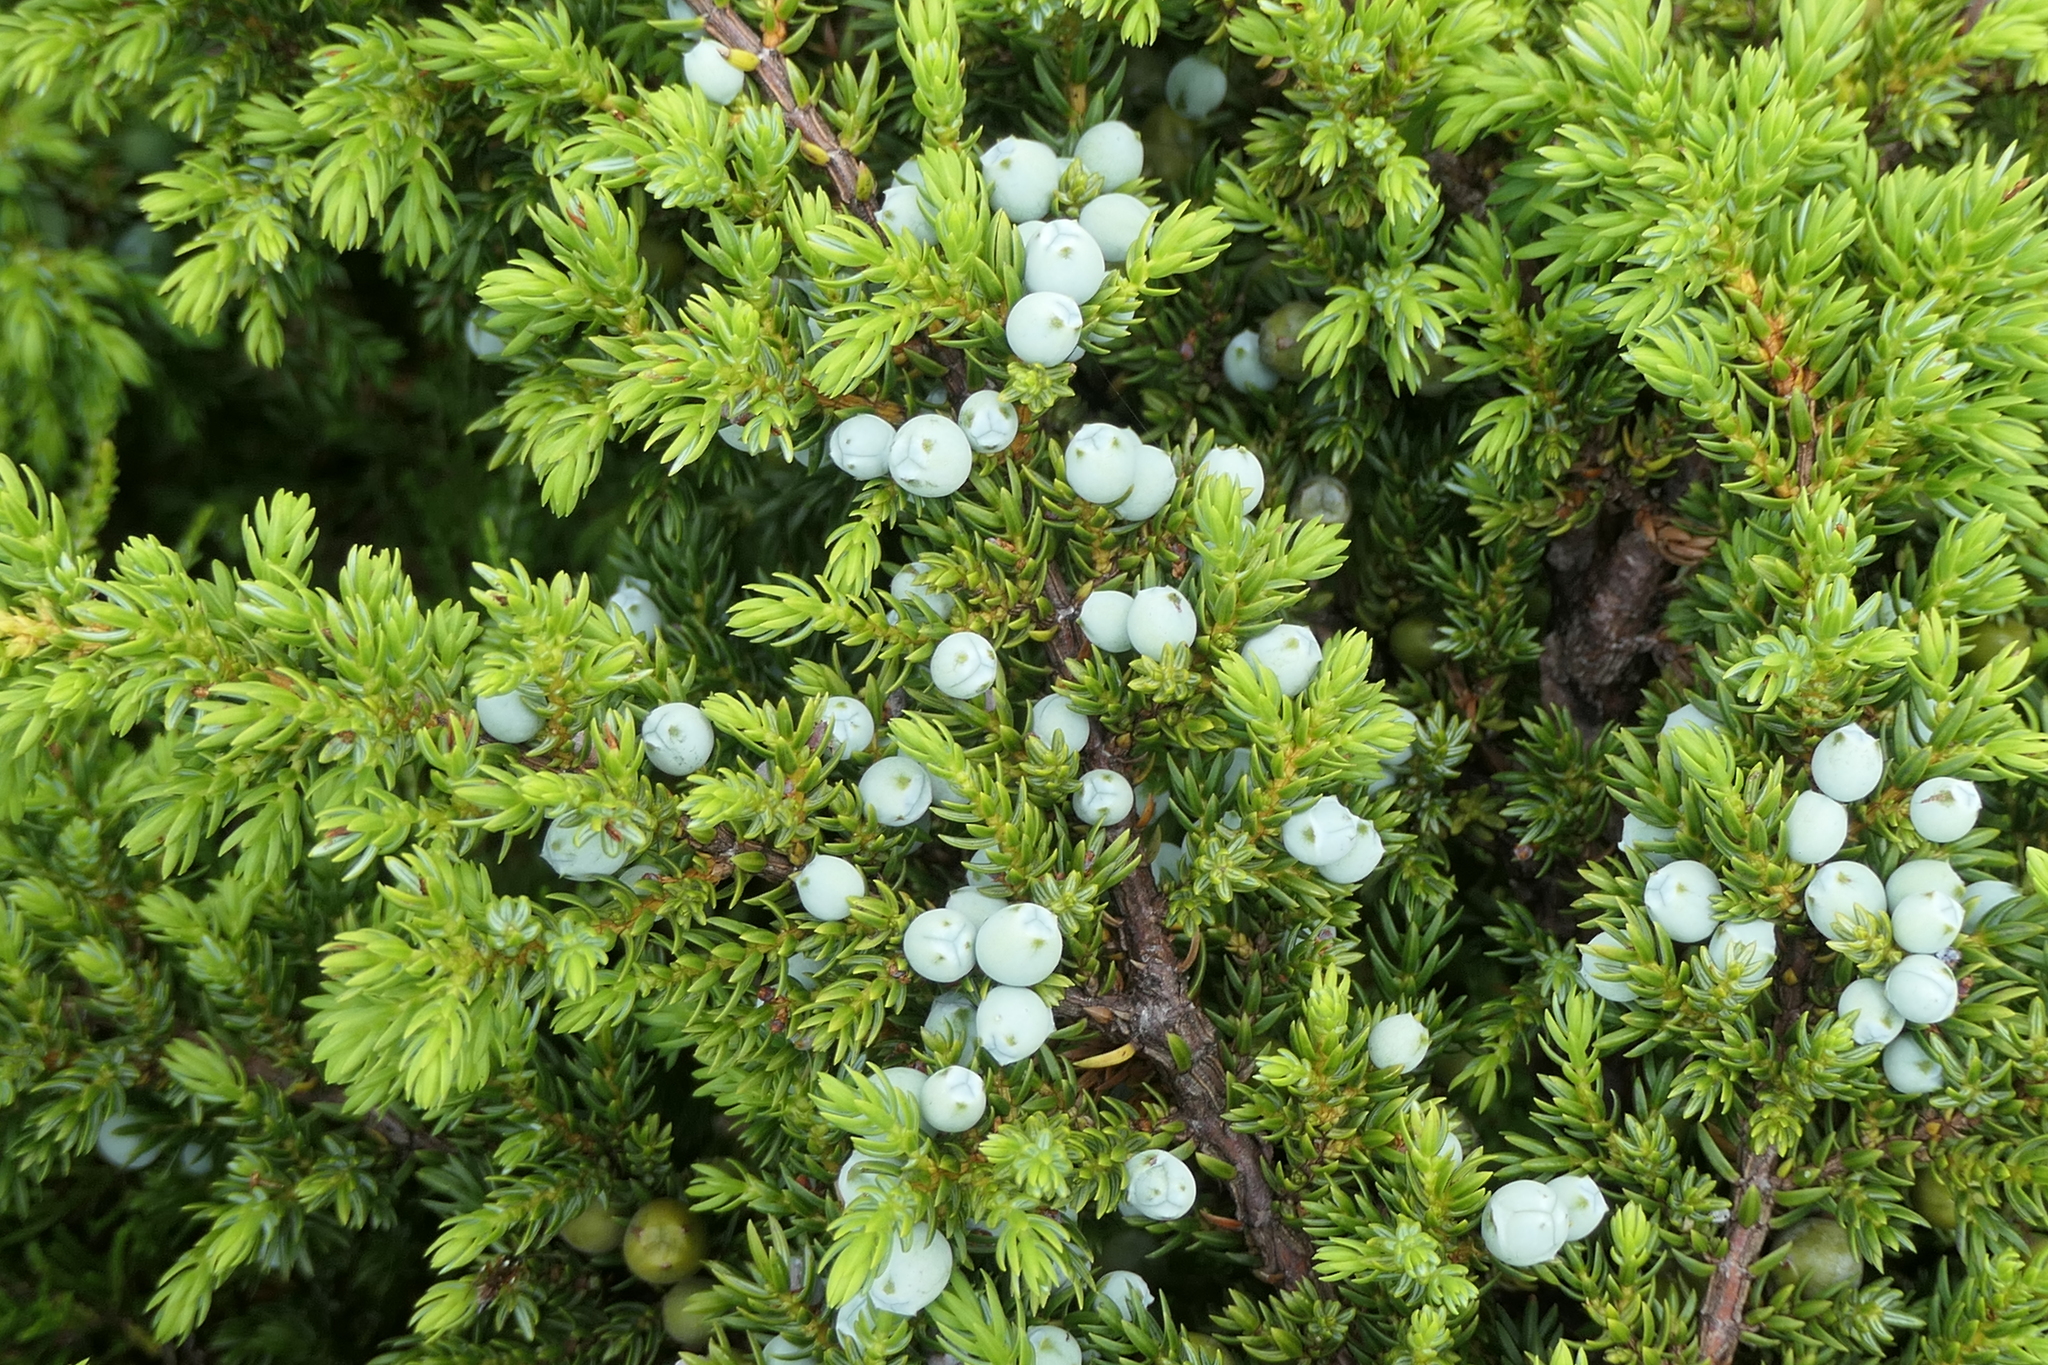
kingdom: Plantae
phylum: Tracheophyta
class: Pinopsida
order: Pinales
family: Cupressaceae
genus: Juniperus
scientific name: Juniperus brevifolia
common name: Azores juniper
